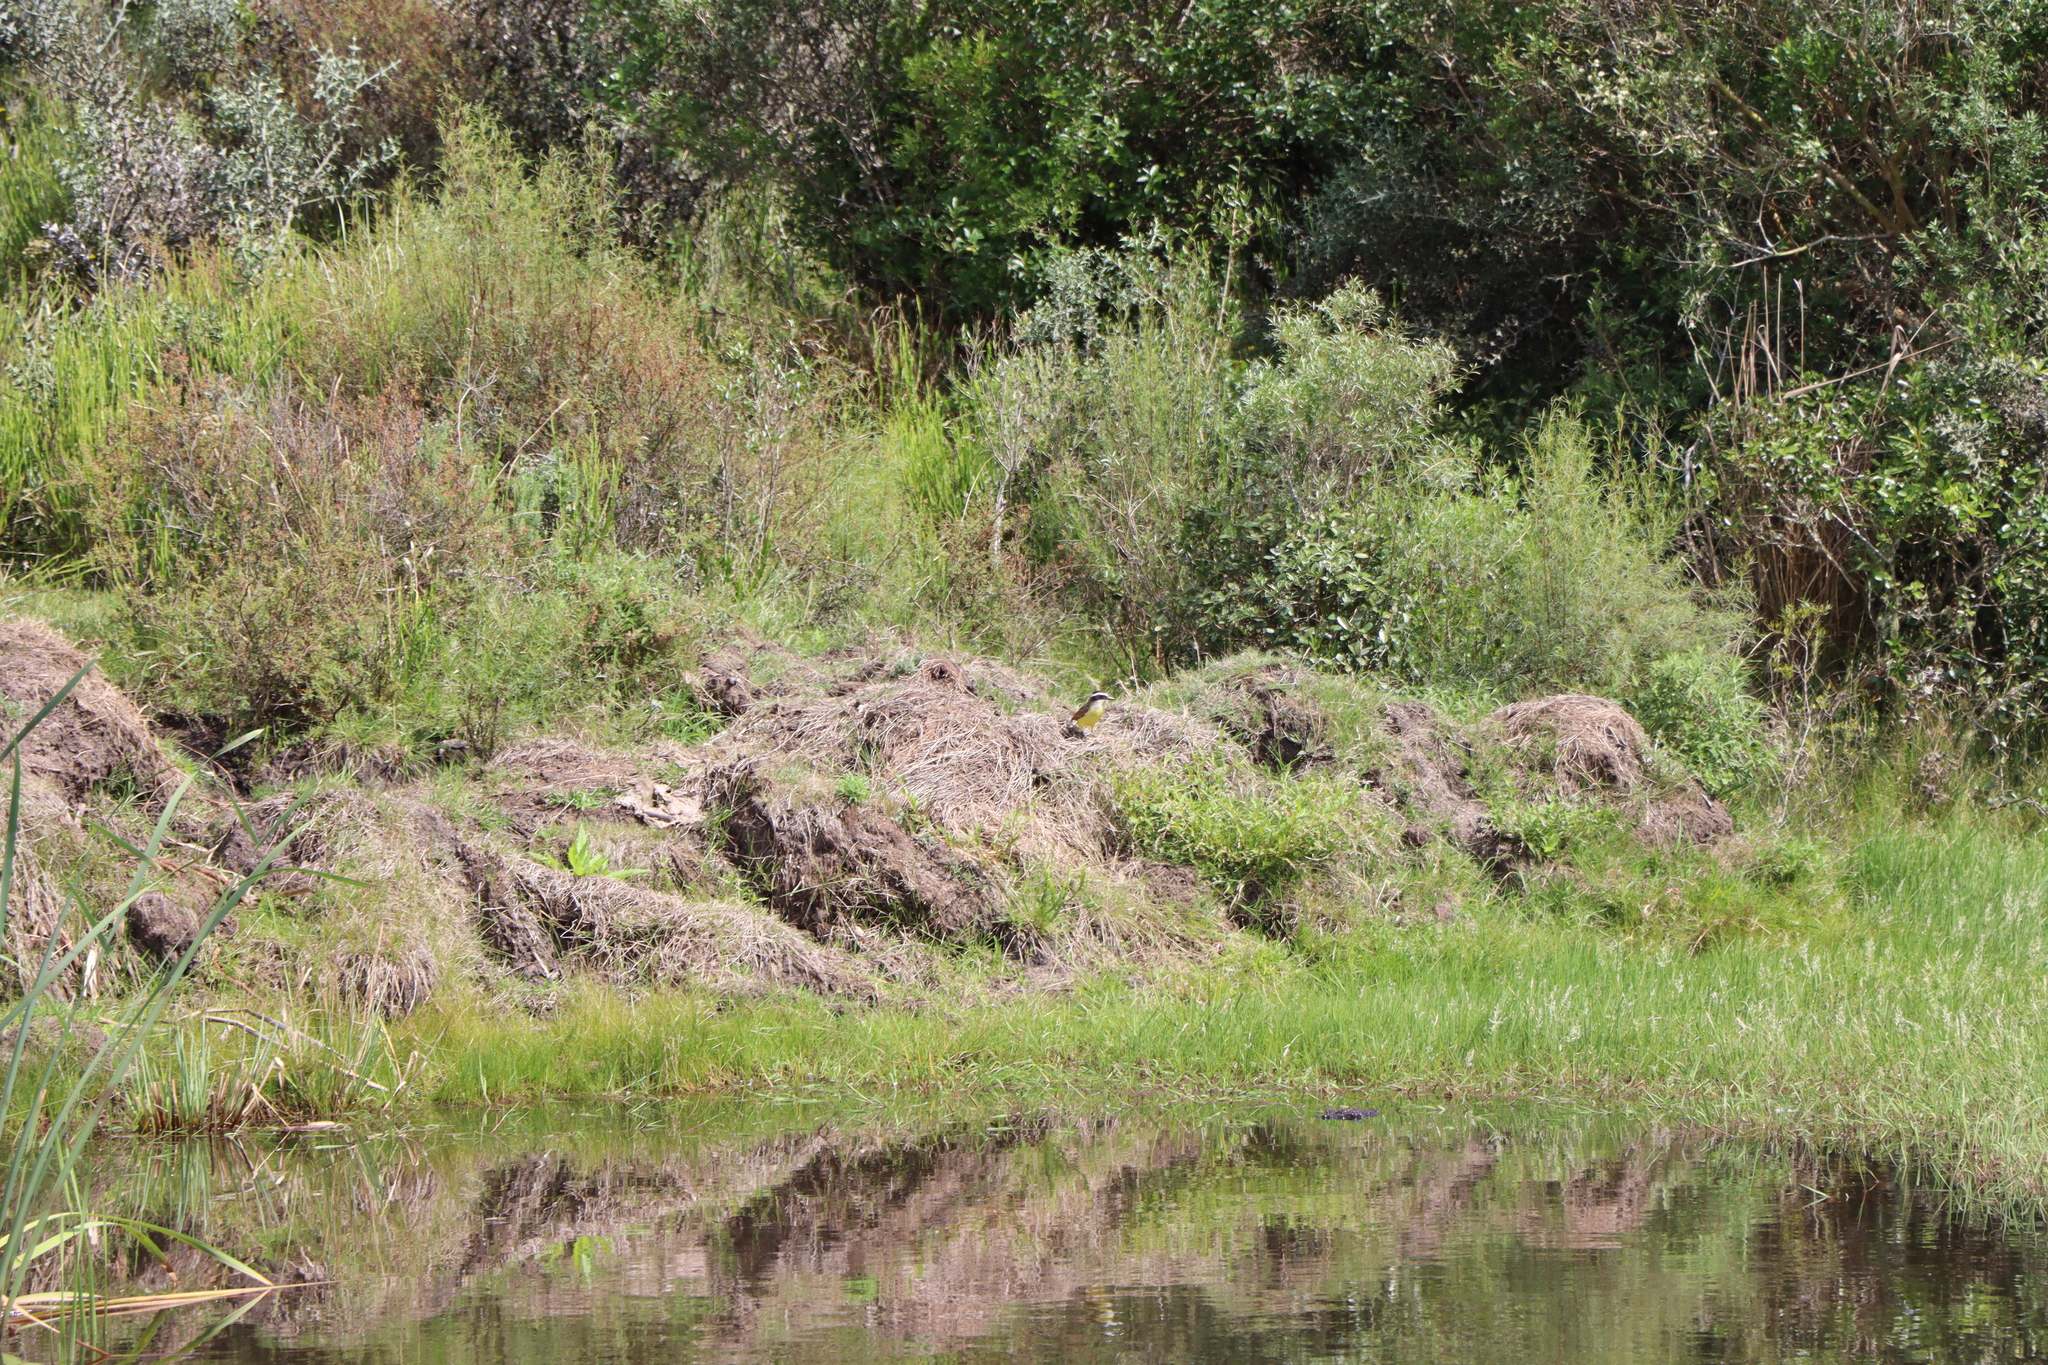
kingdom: Animalia
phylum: Chordata
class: Aves
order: Passeriformes
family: Tyrannidae
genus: Pitangus
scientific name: Pitangus sulphuratus
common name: Great kiskadee
